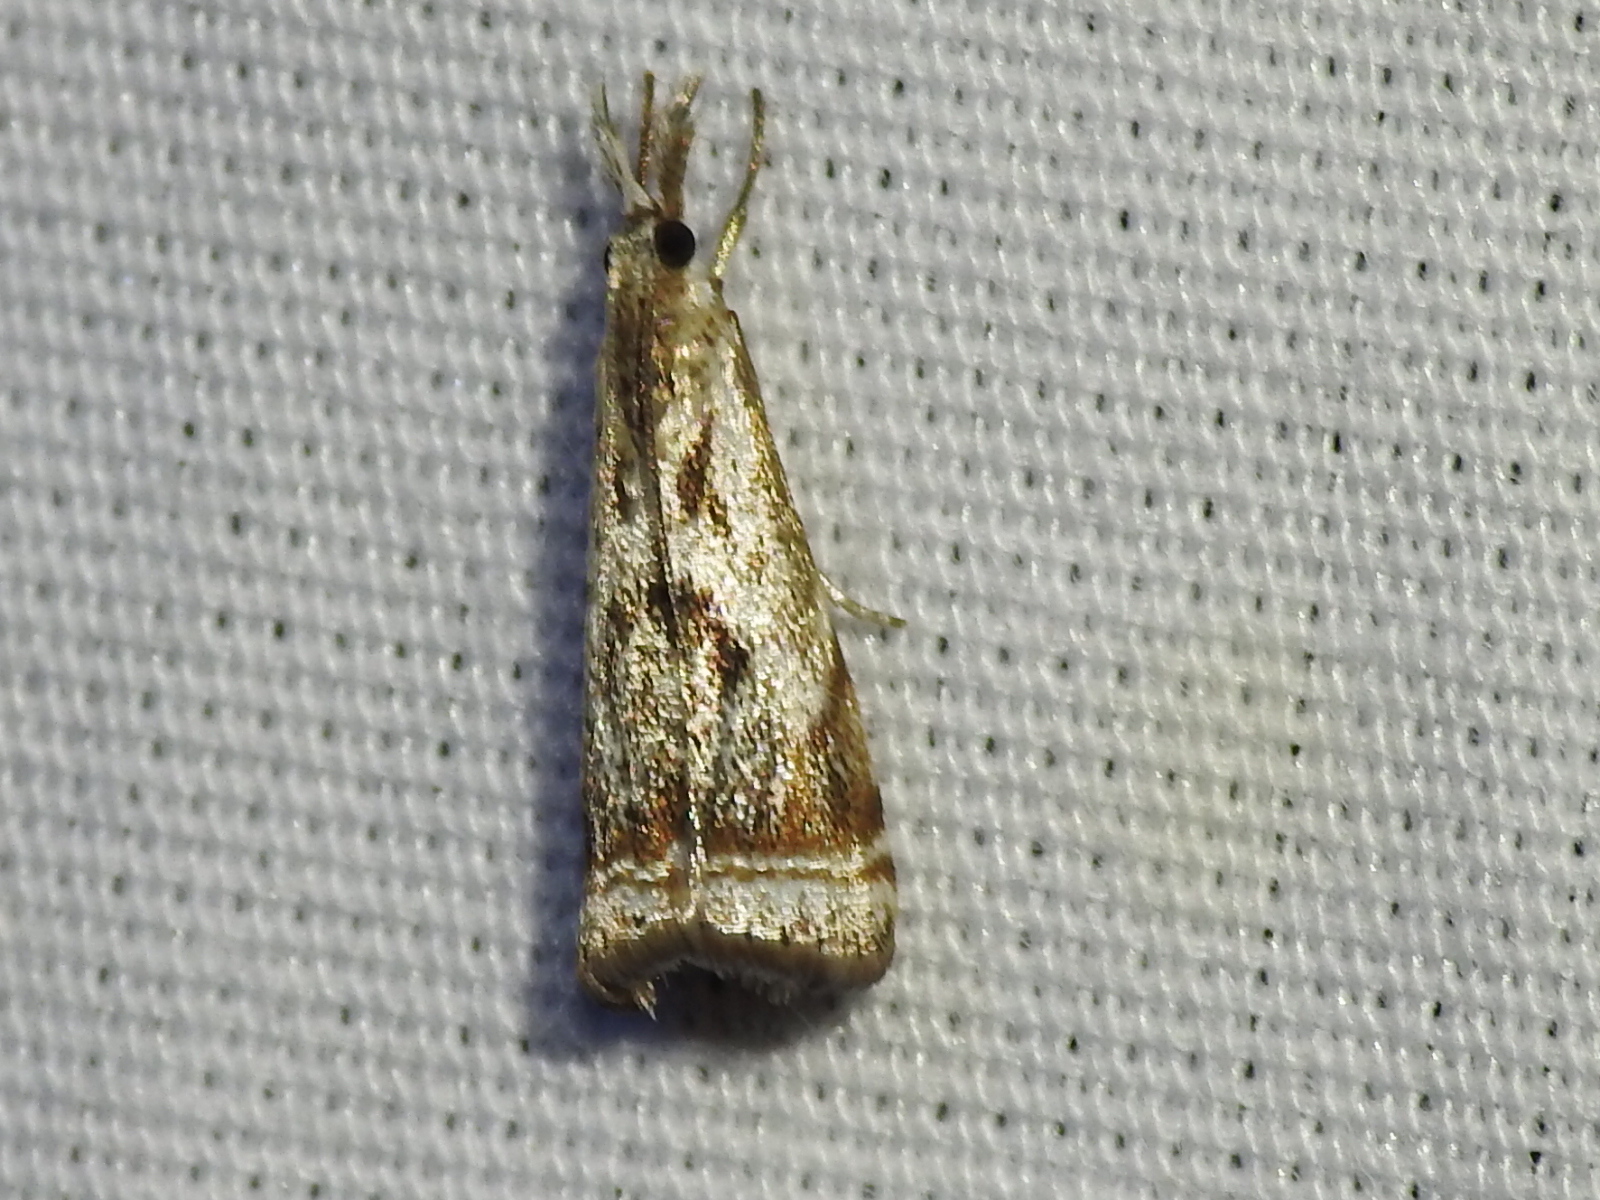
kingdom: Animalia
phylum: Arthropoda
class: Insecta
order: Lepidoptera
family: Crambidae
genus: Microcrambus
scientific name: Microcrambus elegans
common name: Elegant grass-veneer
